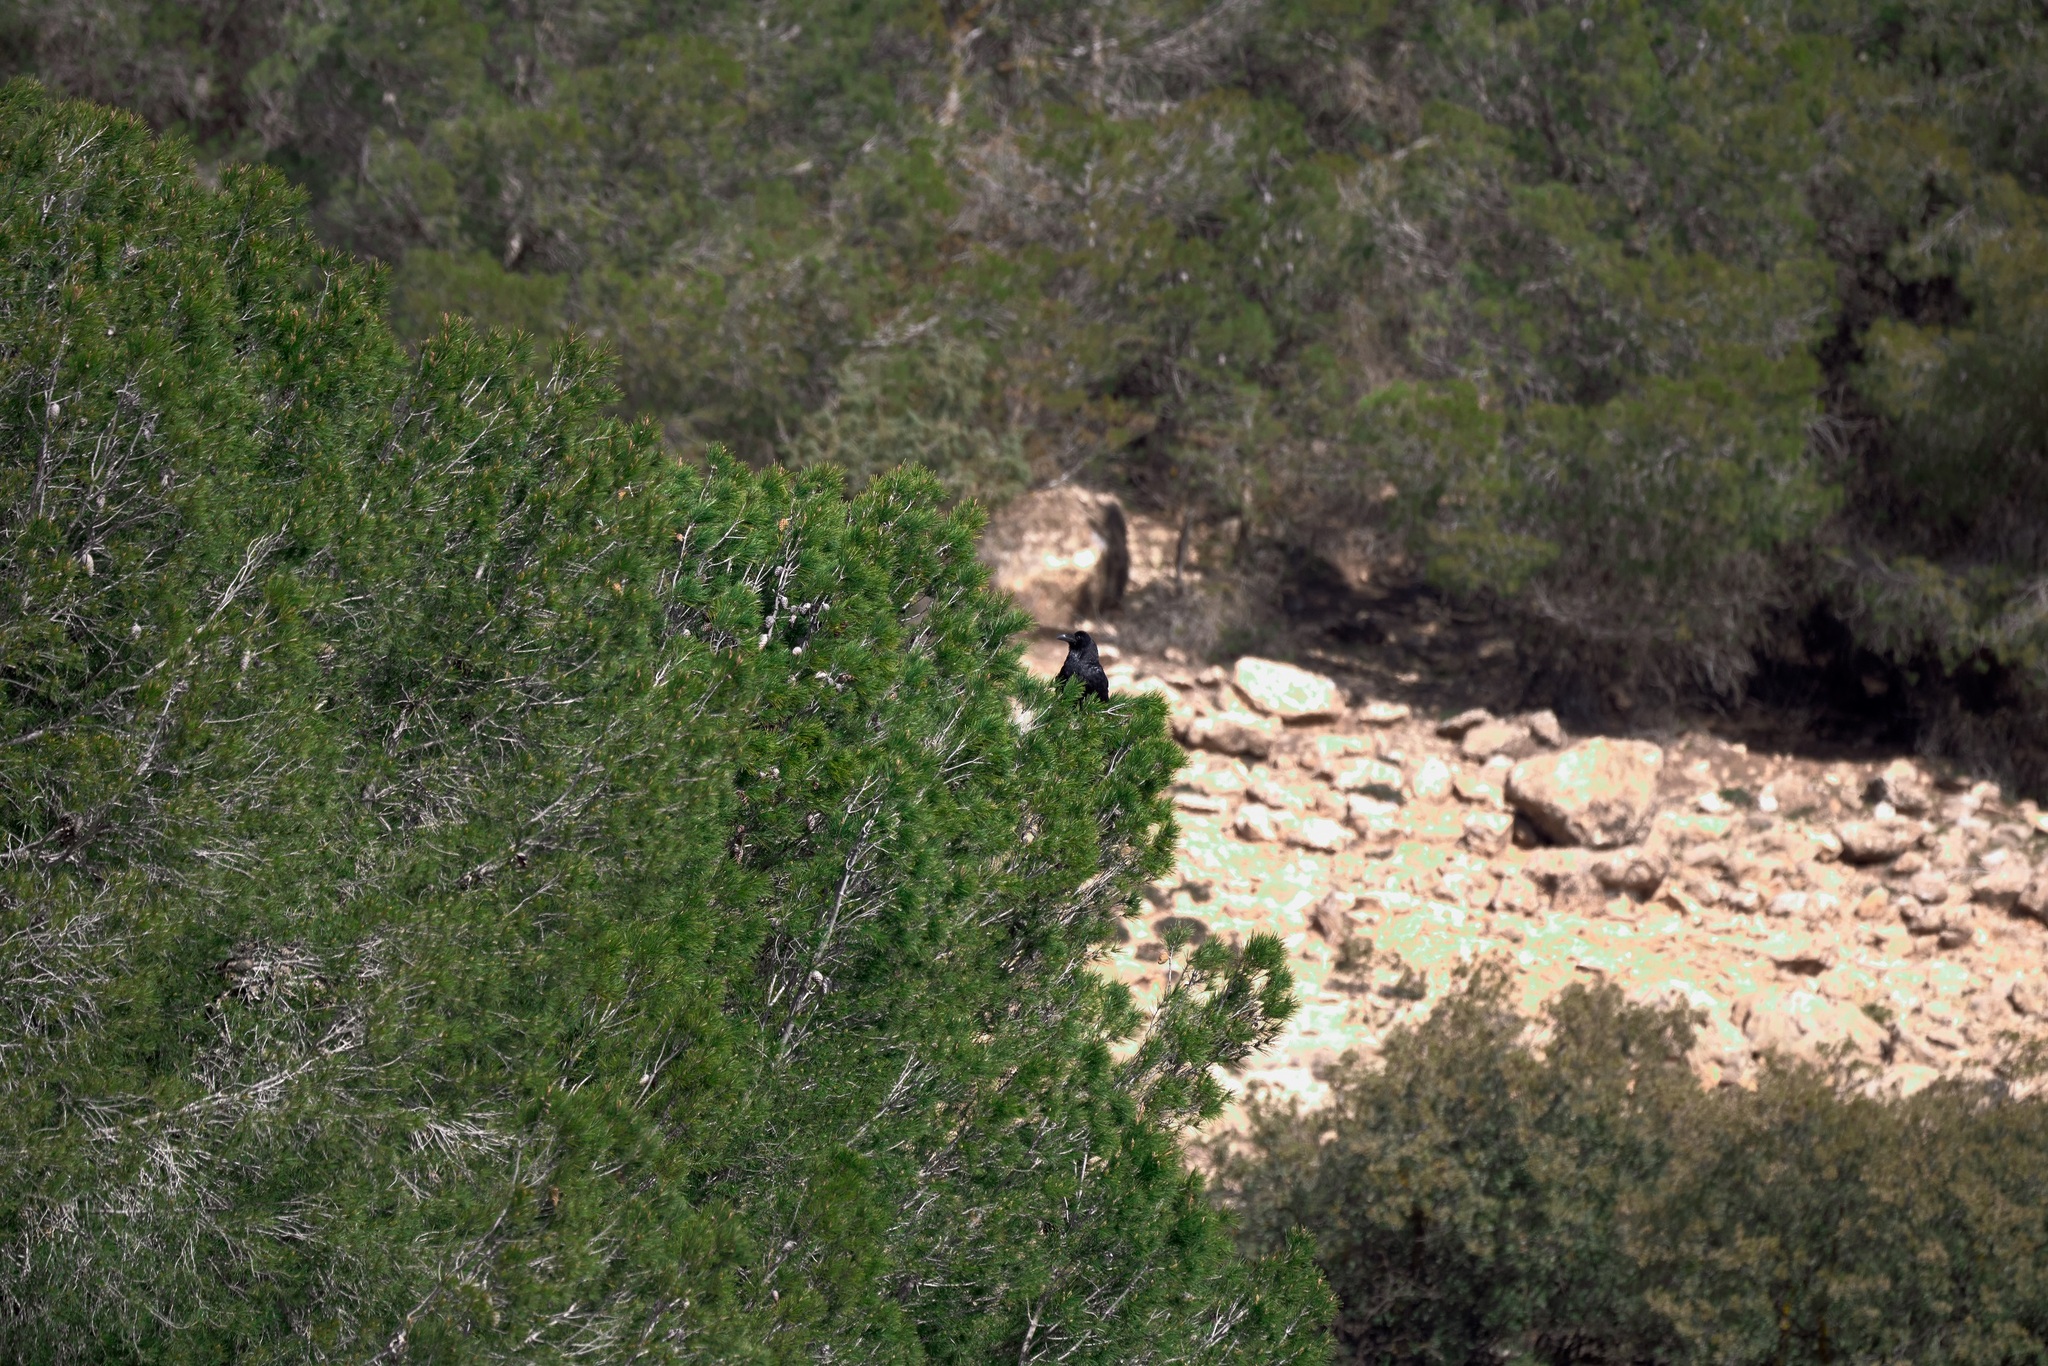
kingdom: Animalia
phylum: Chordata
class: Aves
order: Passeriformes
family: Corvidae
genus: Corvus
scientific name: Corvus corax
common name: Common raven
